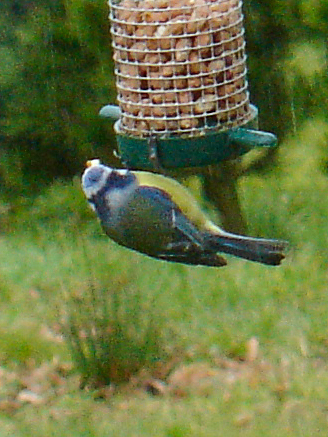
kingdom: Animalia
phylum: Chordata
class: Aves
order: Passeriformes
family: Paridae
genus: Cyanistes
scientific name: Cyanistes caeruleus
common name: Eurasian blue tit
